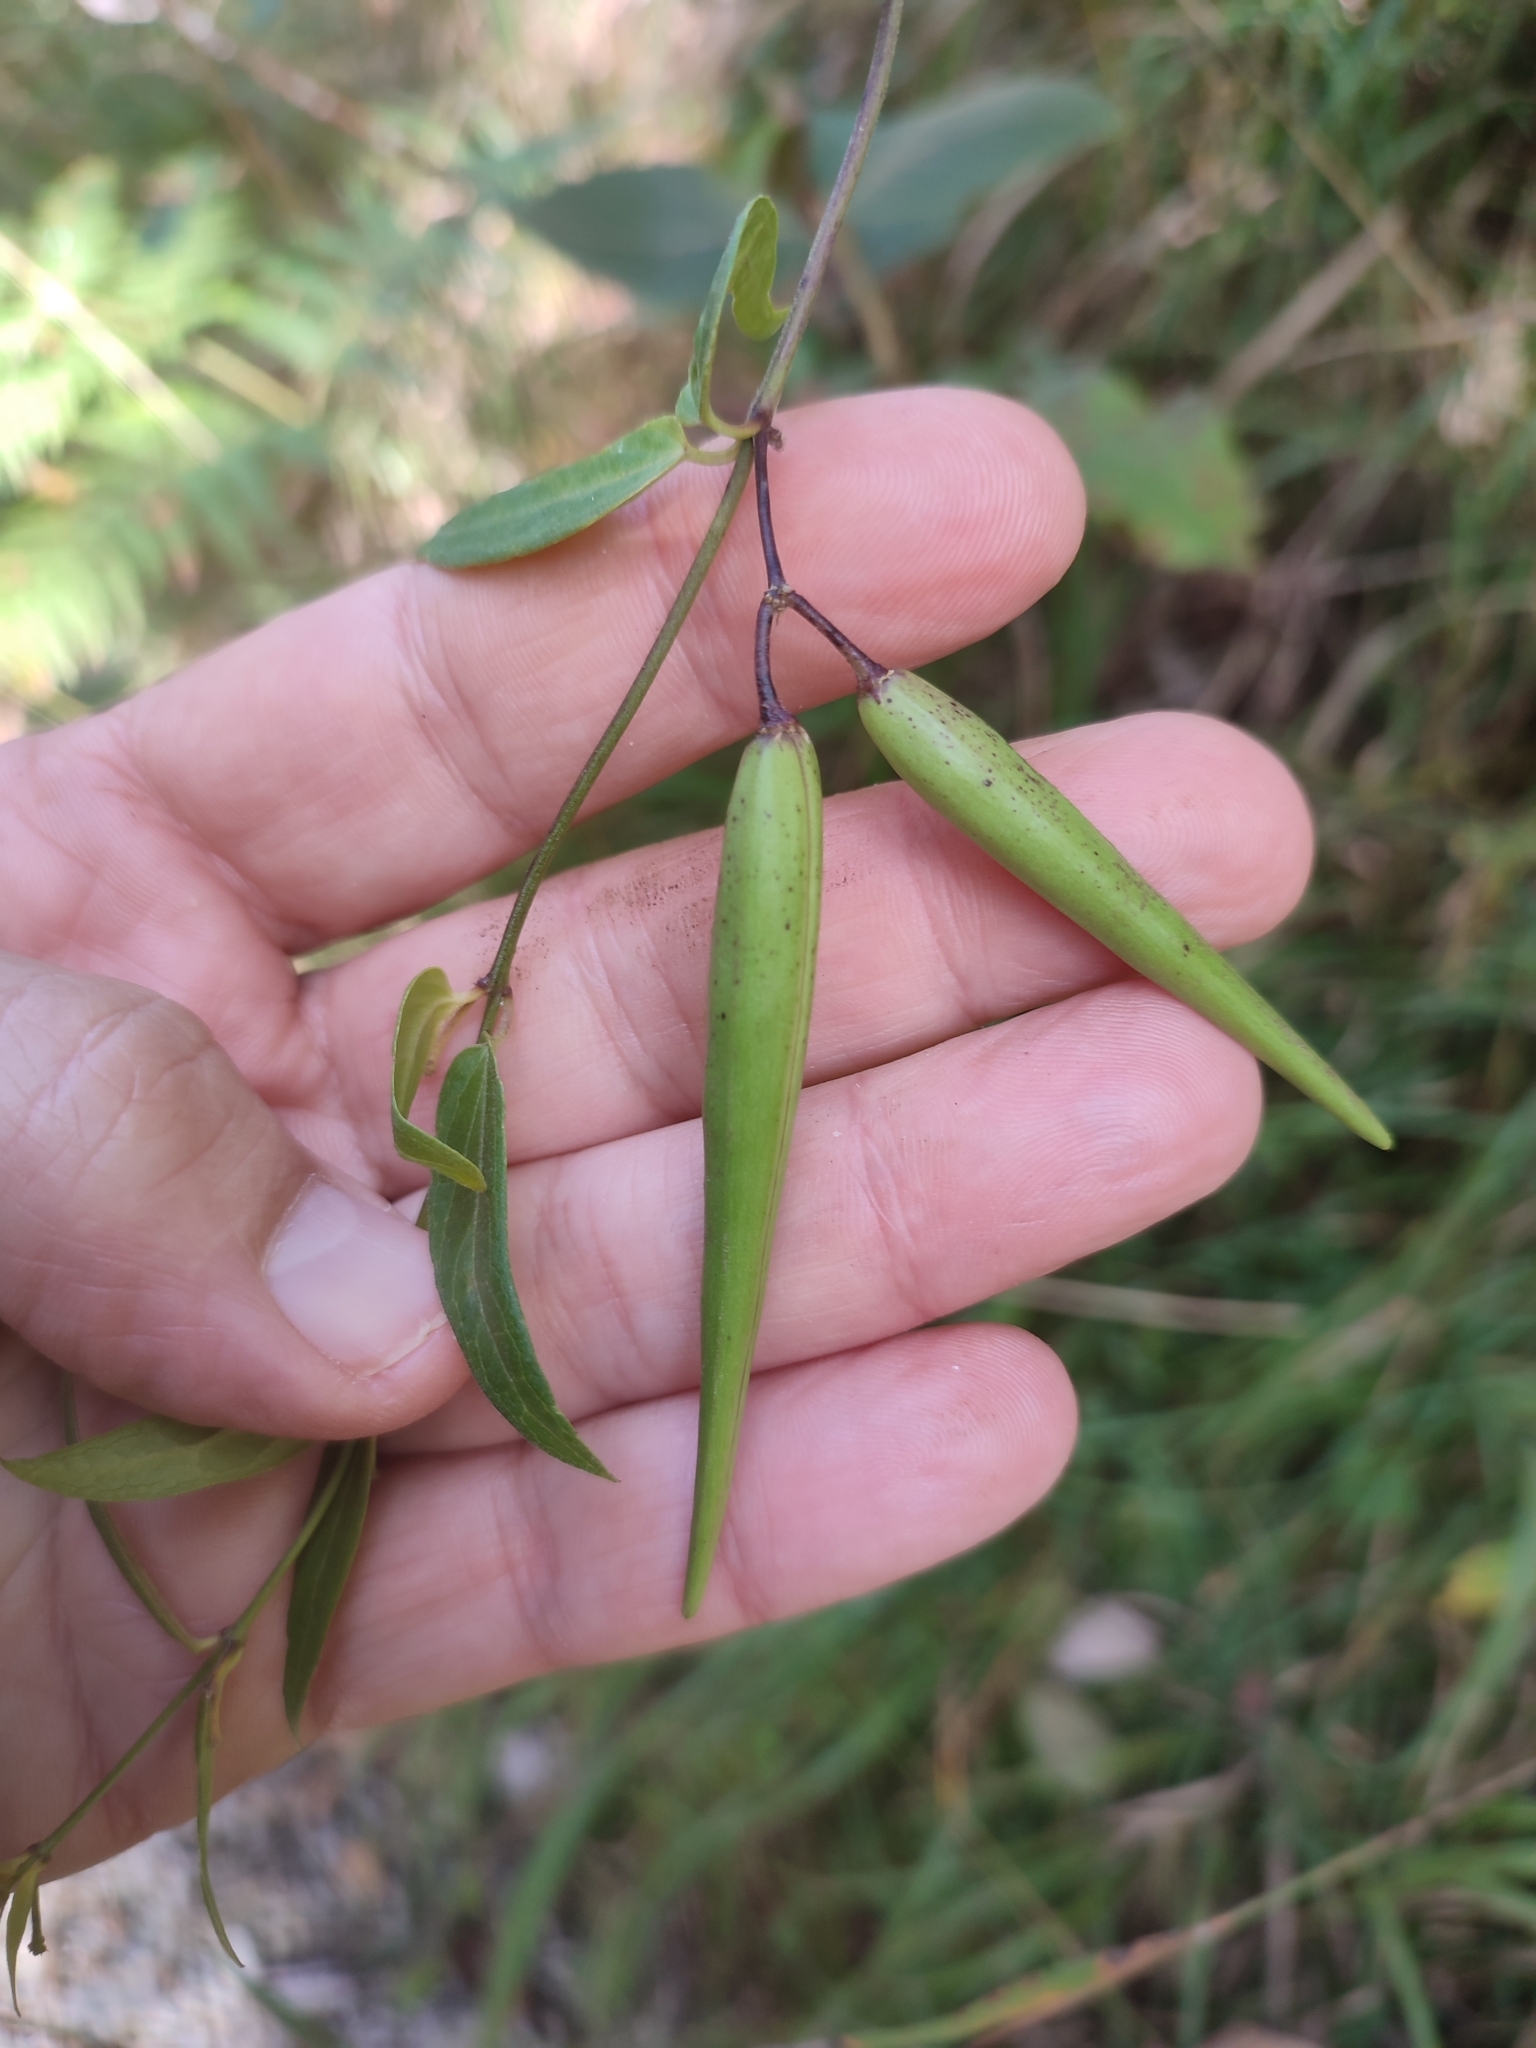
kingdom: Plantae
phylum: Tracheophyta
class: Magnoliopsida
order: Gentianales
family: Apocynaceae
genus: Vincetoxicum
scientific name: Vincetoxicum hirundinaria
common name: White swallowwort
